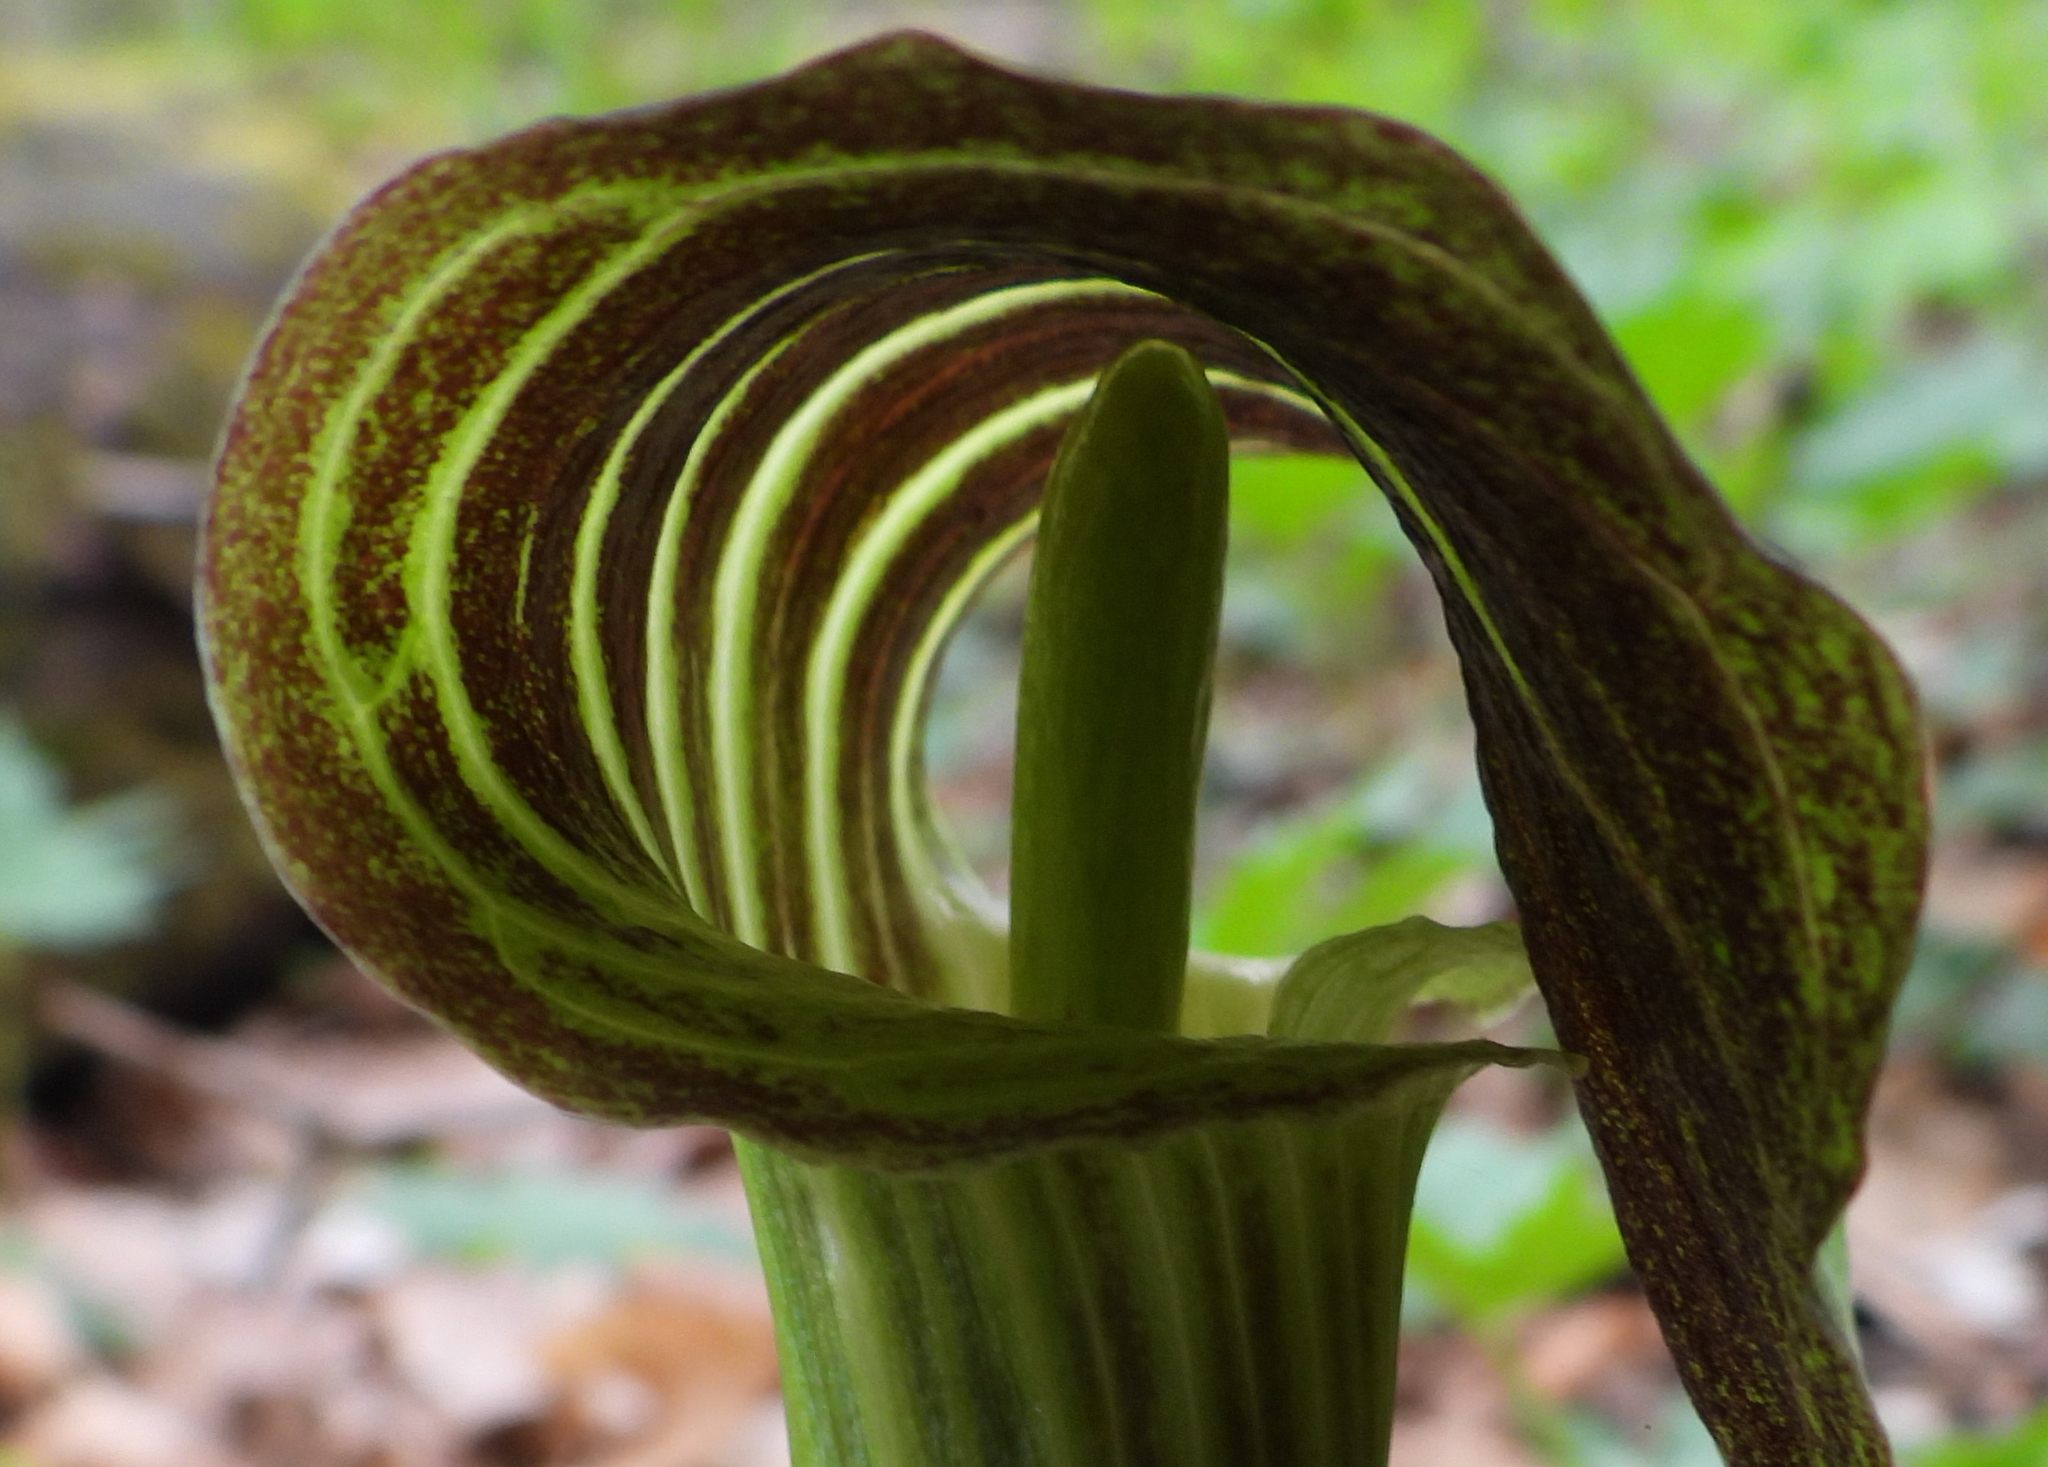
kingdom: Plantae
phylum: Tracheophyta
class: Liliopsida
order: Alismatales
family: Araceae
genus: Arisaema
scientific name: Arisaema triphyllum
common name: Jack-in-the-pulpit
